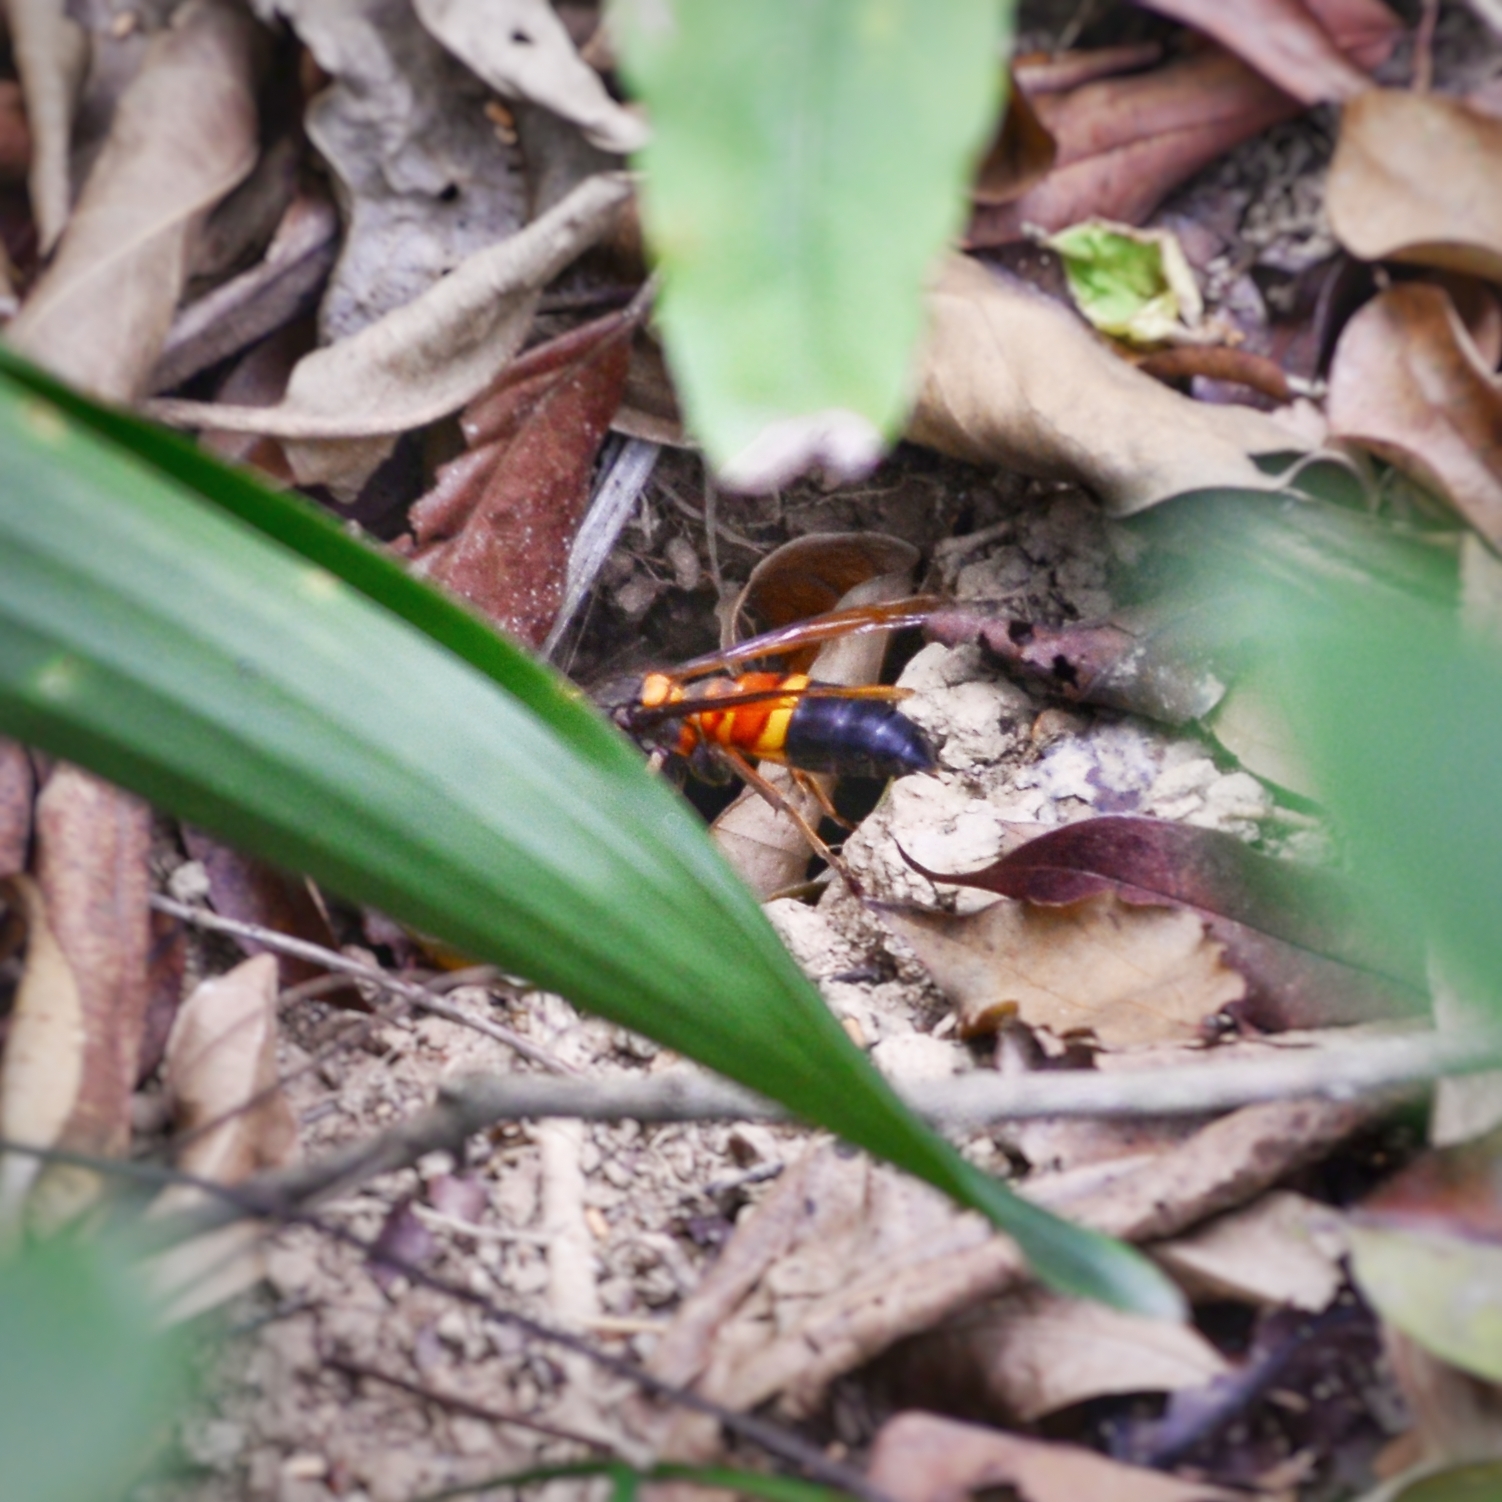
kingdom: Animalia
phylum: Arthropoda
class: Insecta
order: Hymenoptera
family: Vespidae
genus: Vespa
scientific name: Vespa soror
